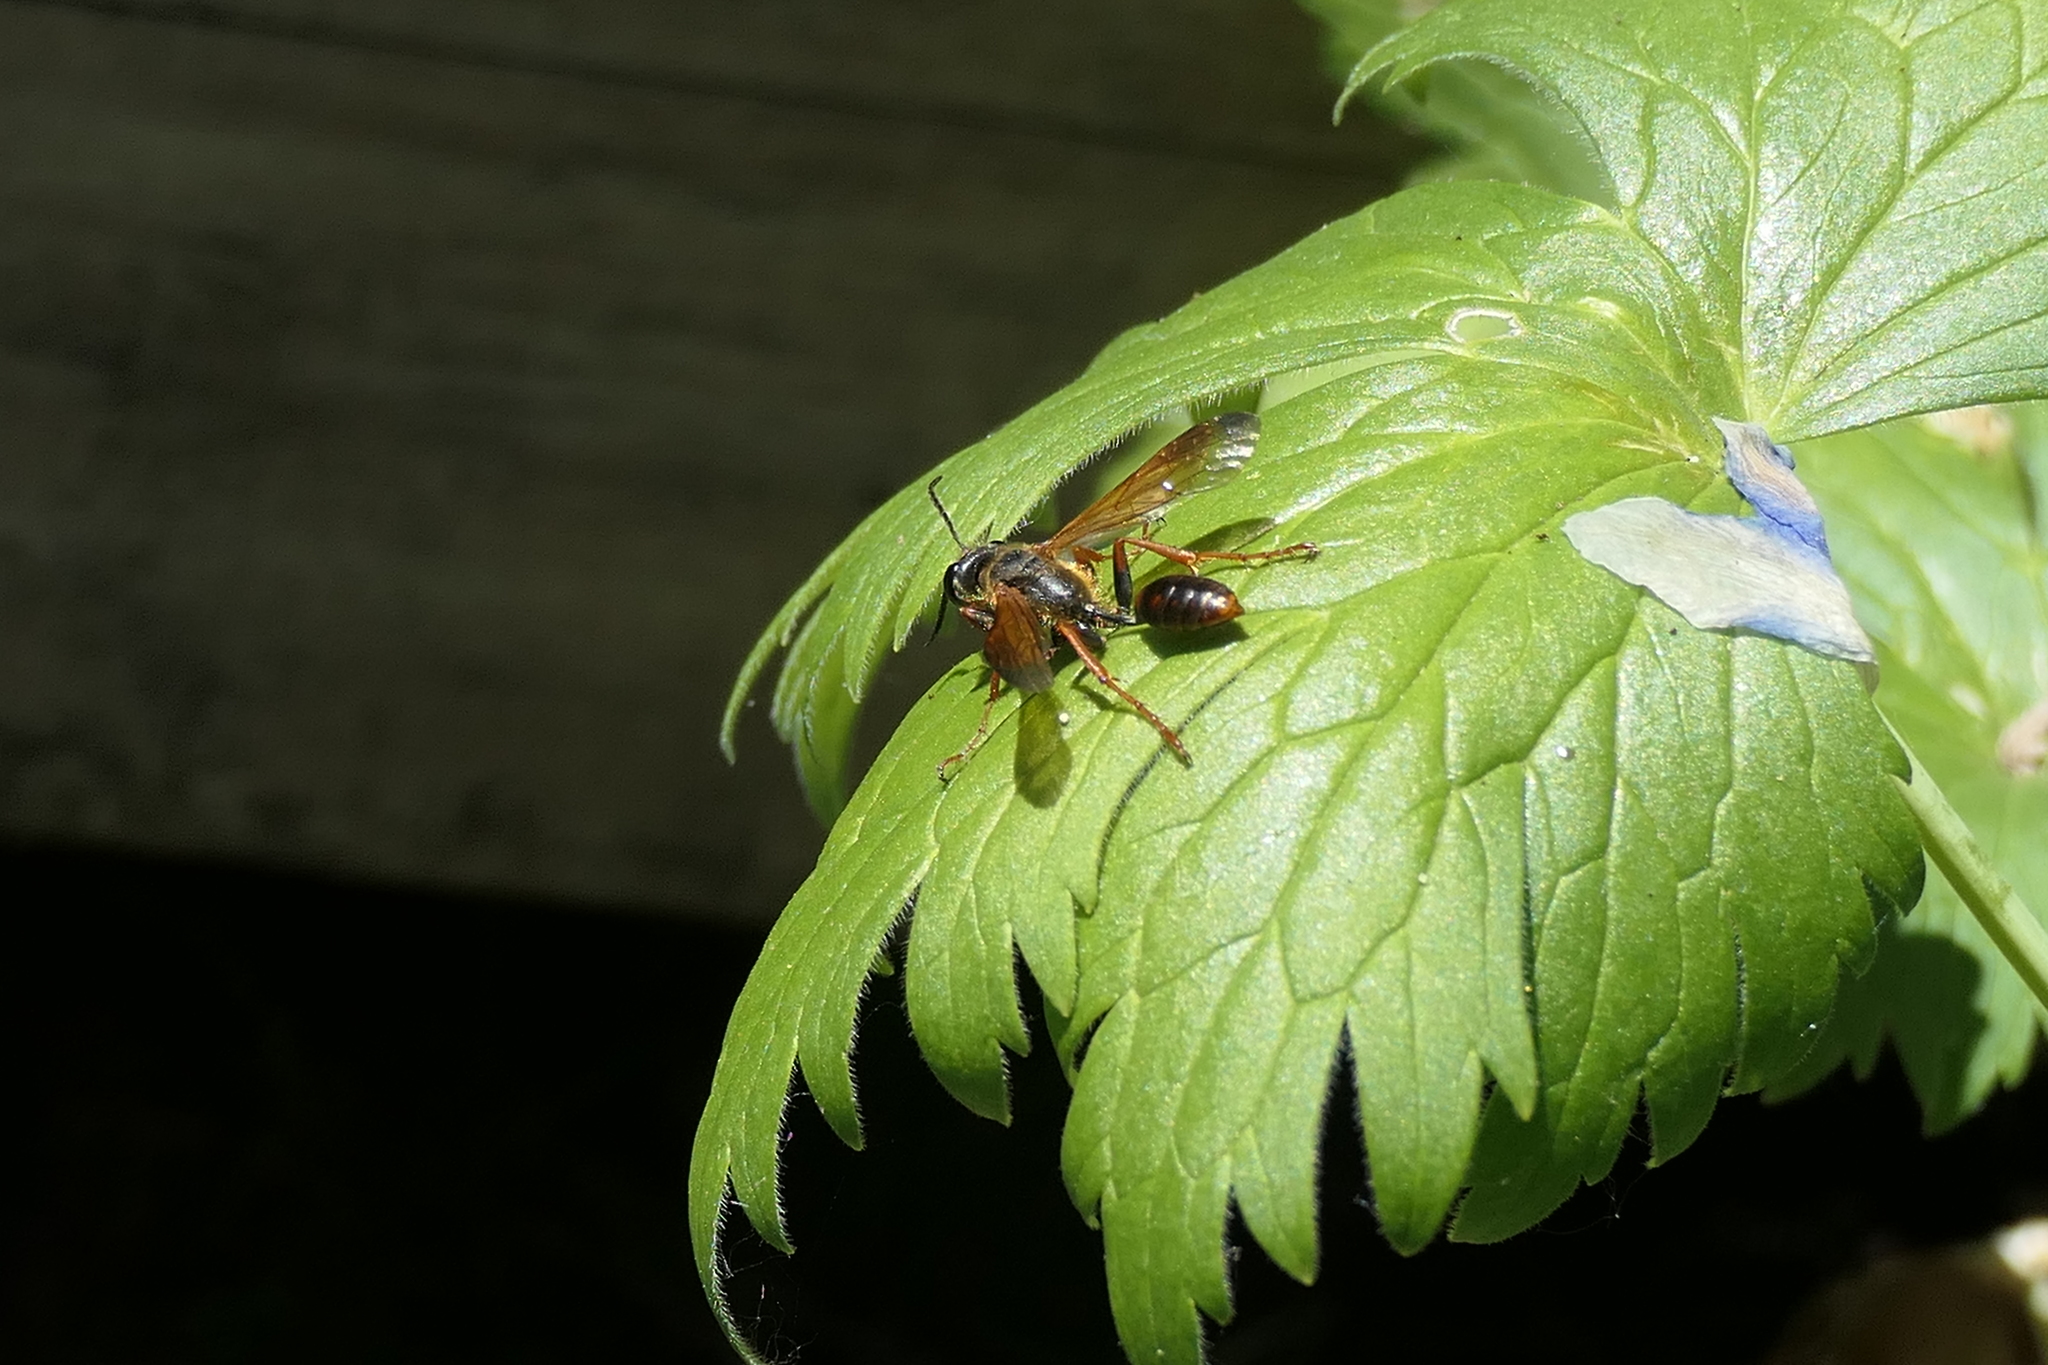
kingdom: Animalia
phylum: Arthropoda
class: Insecta
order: Hymenoptera
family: Sphecidae
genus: Isodontia
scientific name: Isodontia elegans
